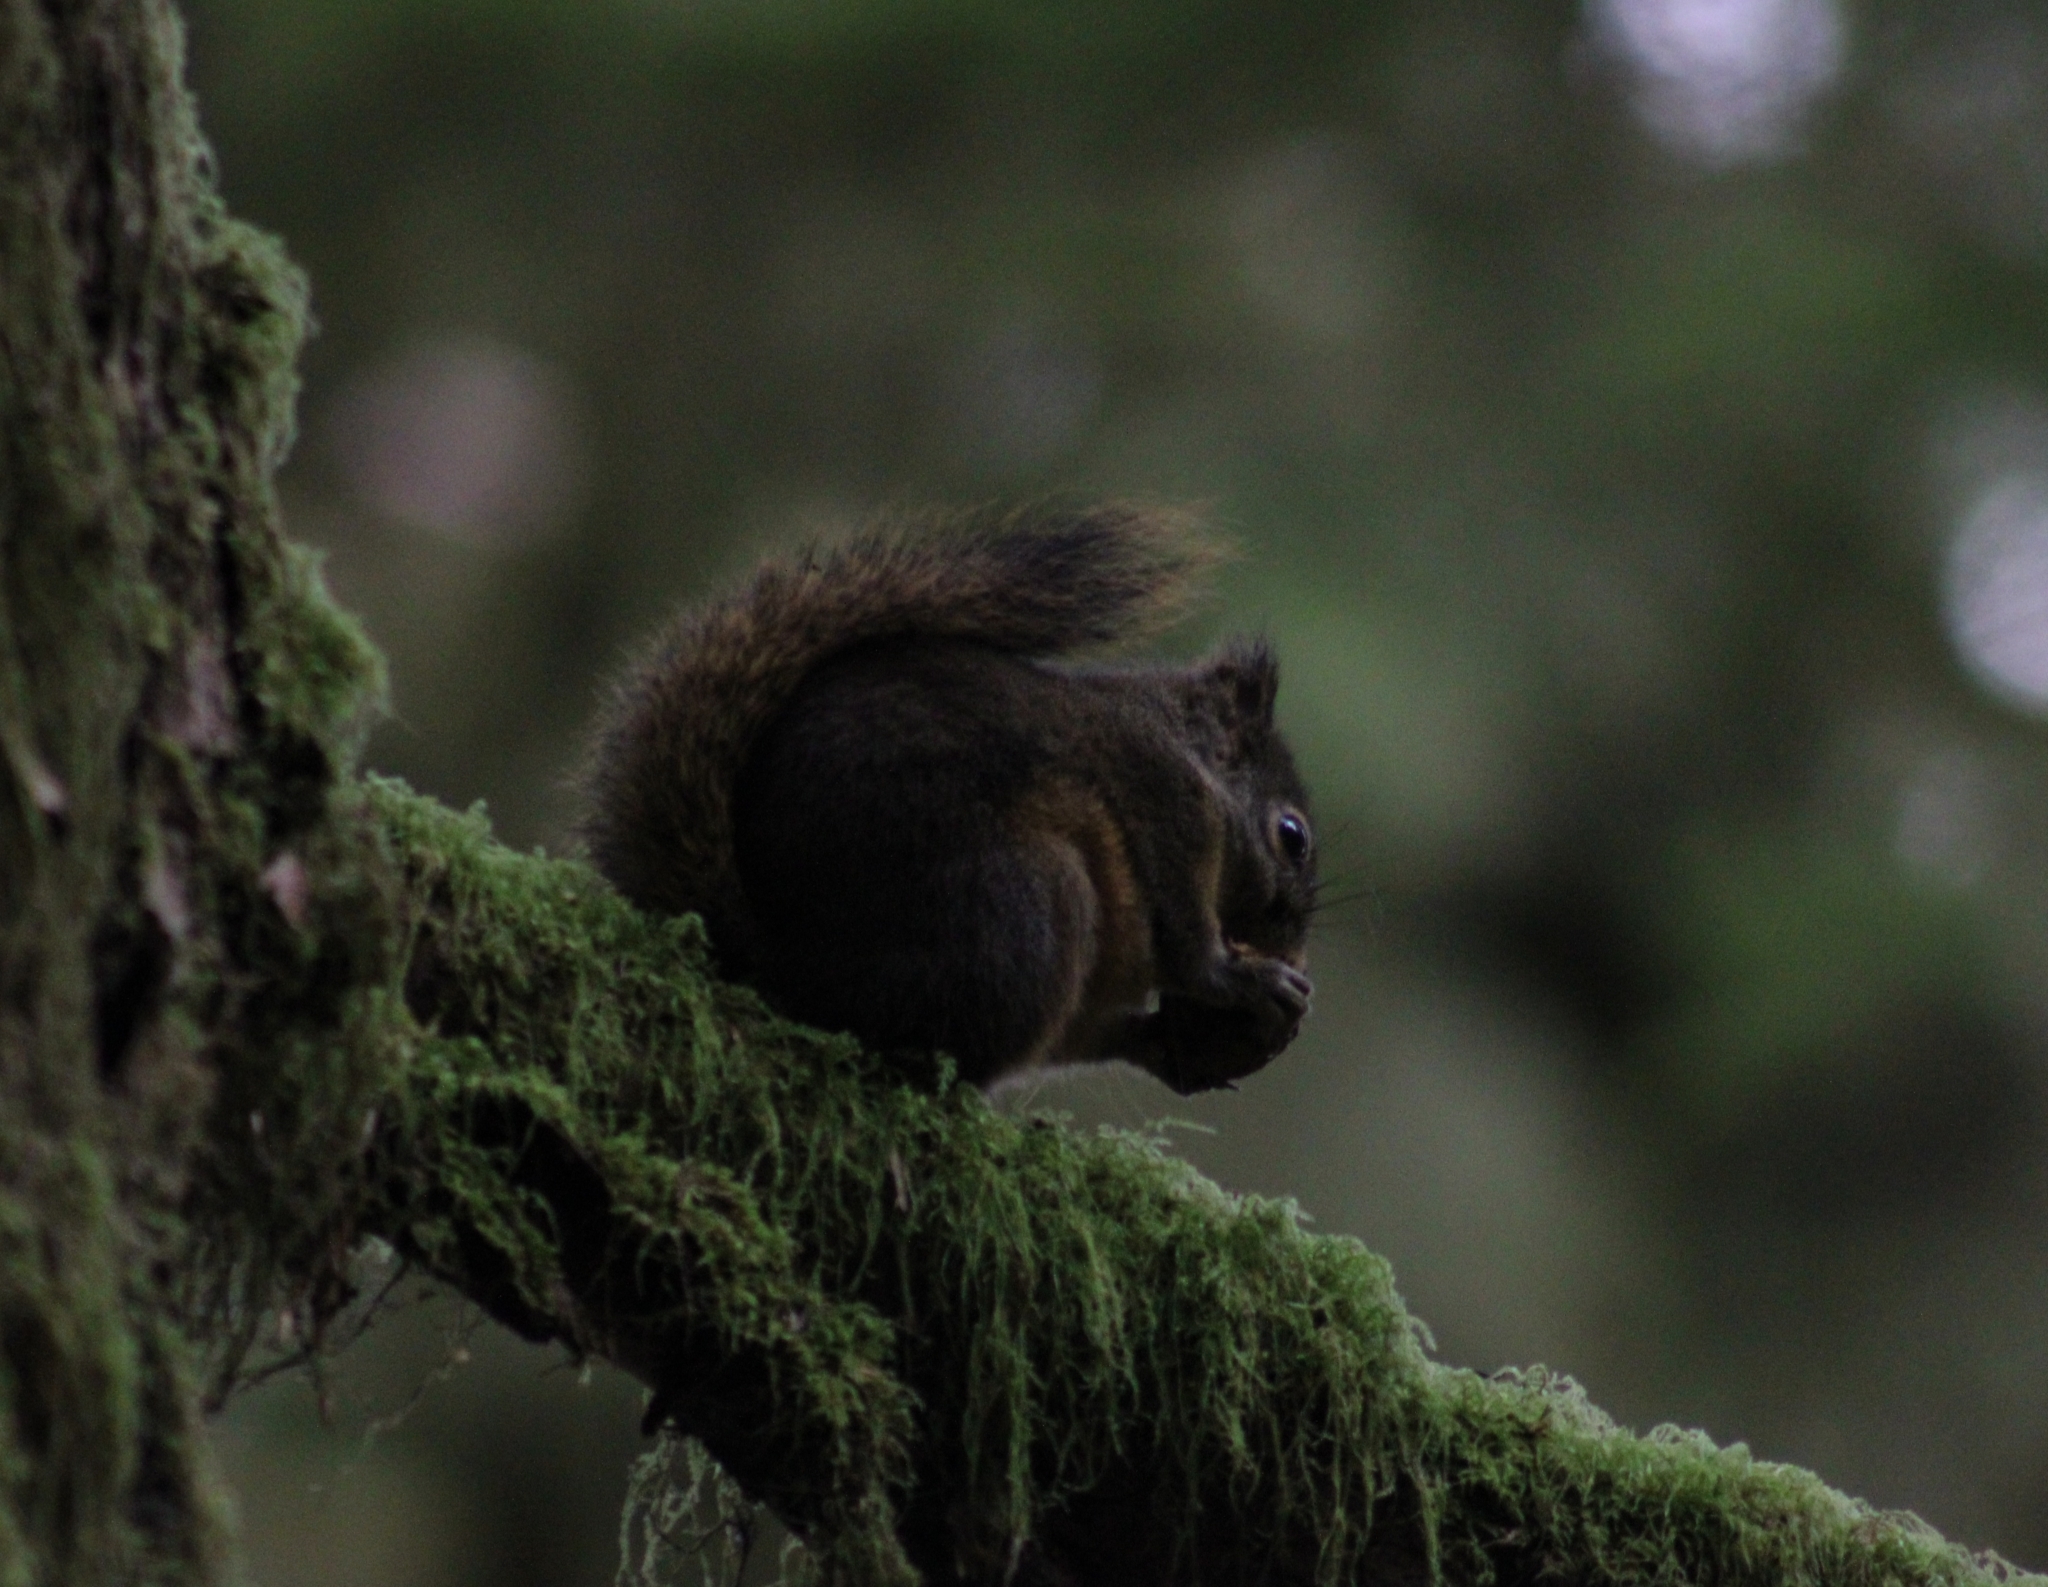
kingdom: Animalia
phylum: Chordata
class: Mammalia
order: Rodentia
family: Sciuridae
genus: Tamiasciurus
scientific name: Tamiasciurus douglasii
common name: Douglas's squirrel
